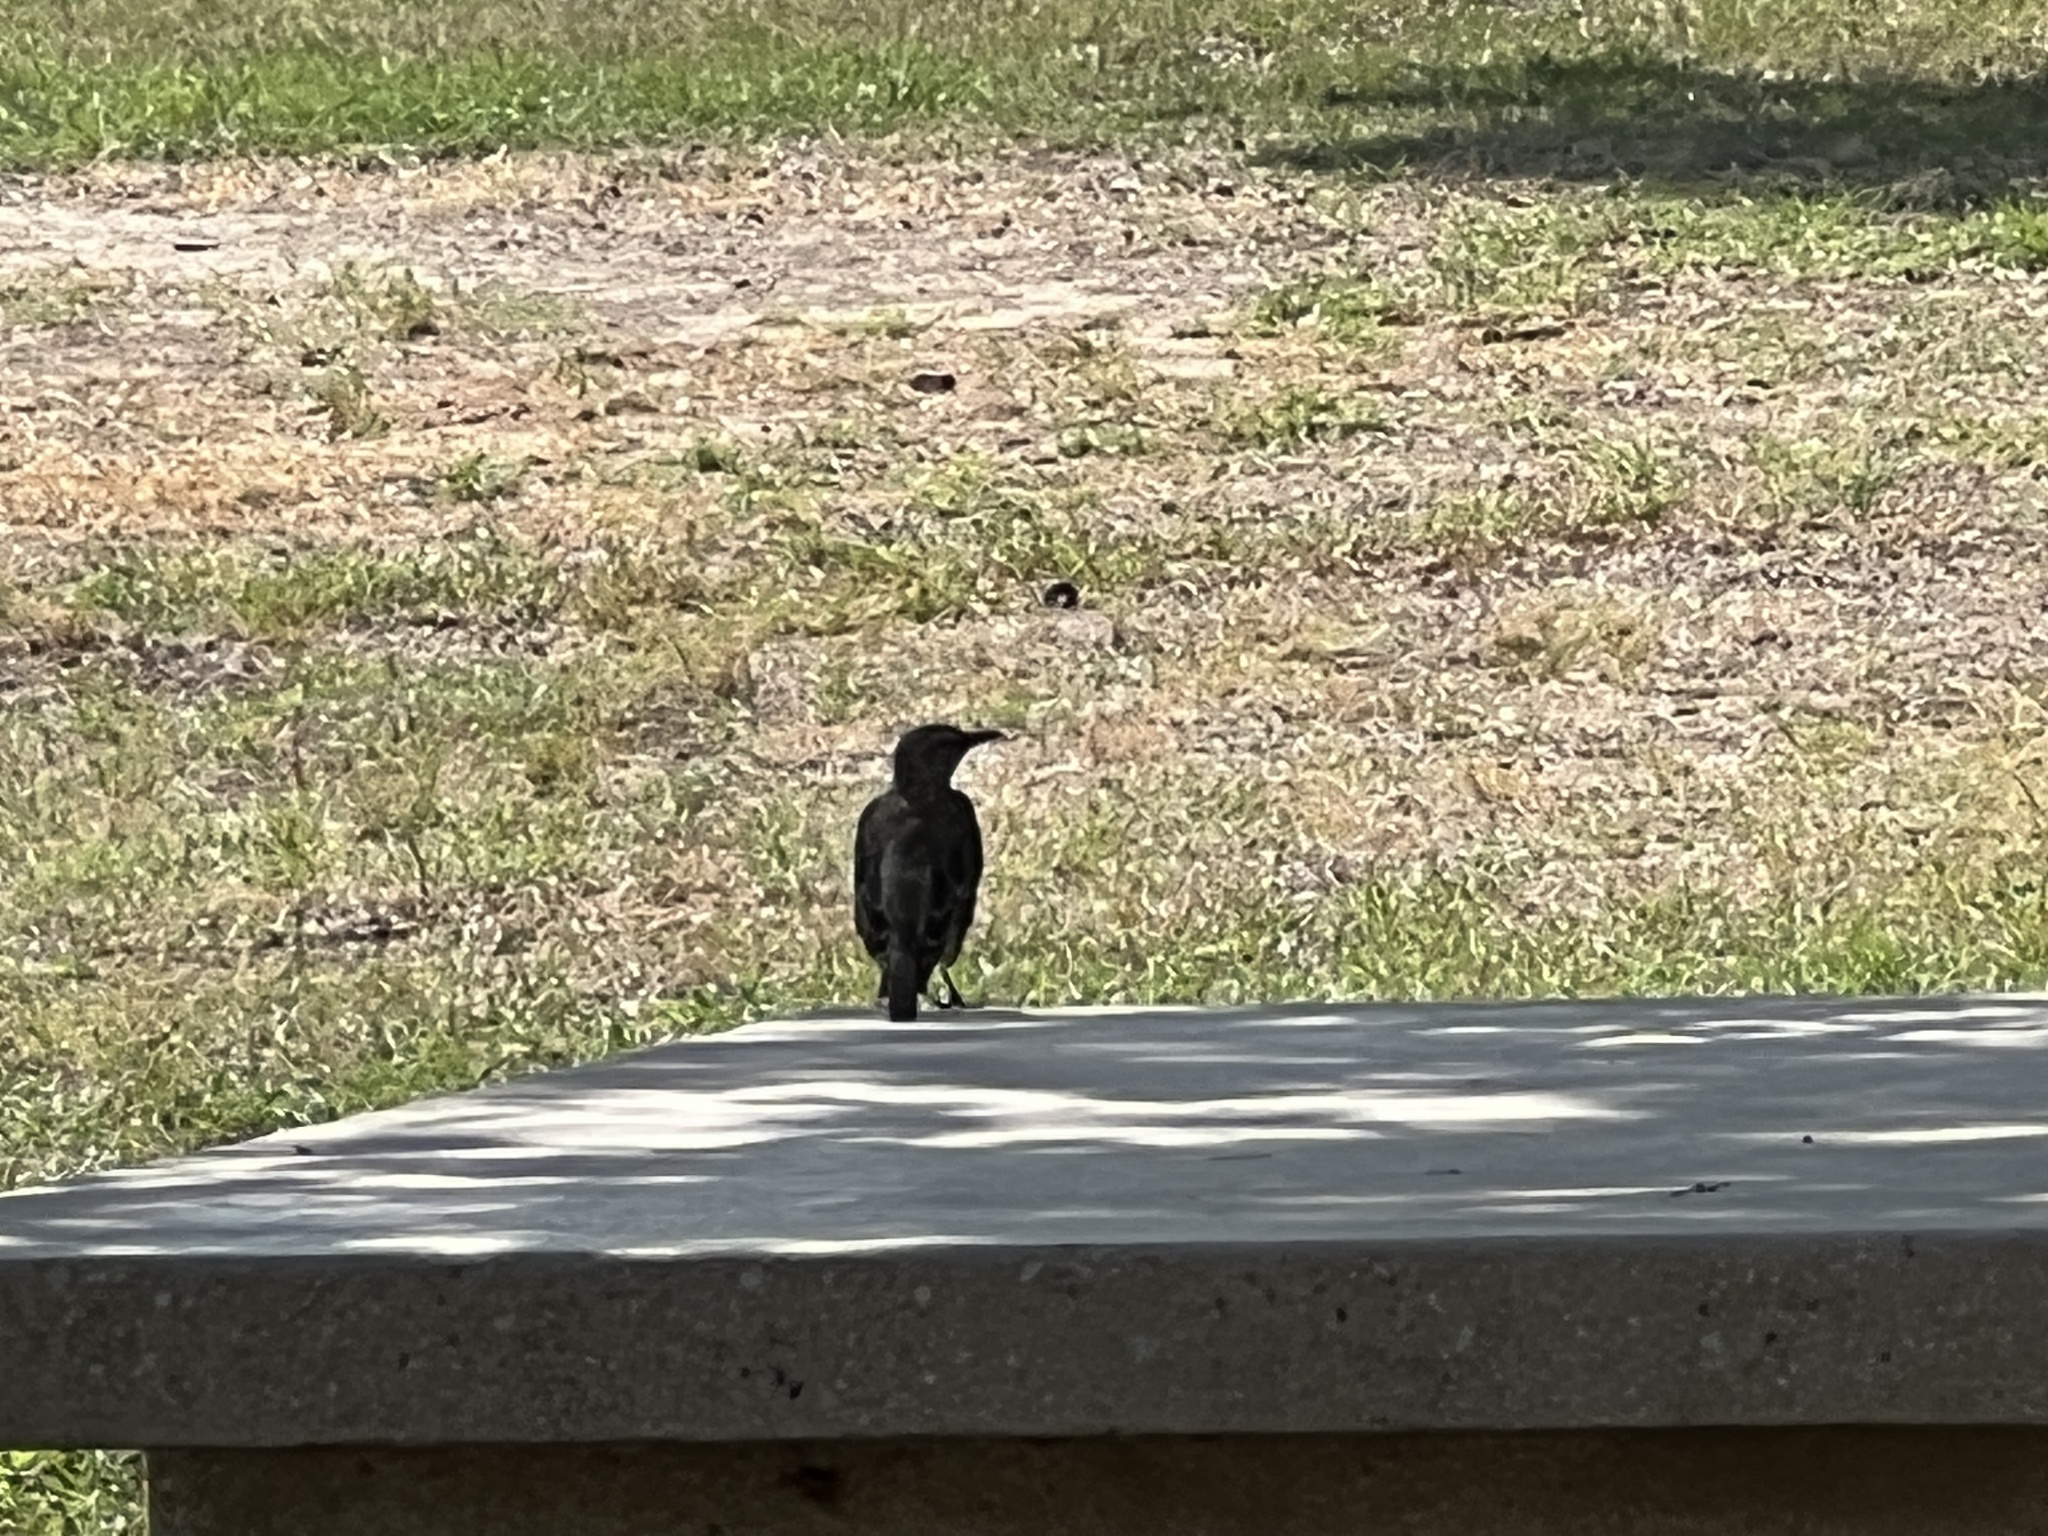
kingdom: Animalia
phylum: Chordata
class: Aves
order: Passeriformes
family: Mimidae
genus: Mimus
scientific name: Mimus polyglottos
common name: Northern mockingbird
